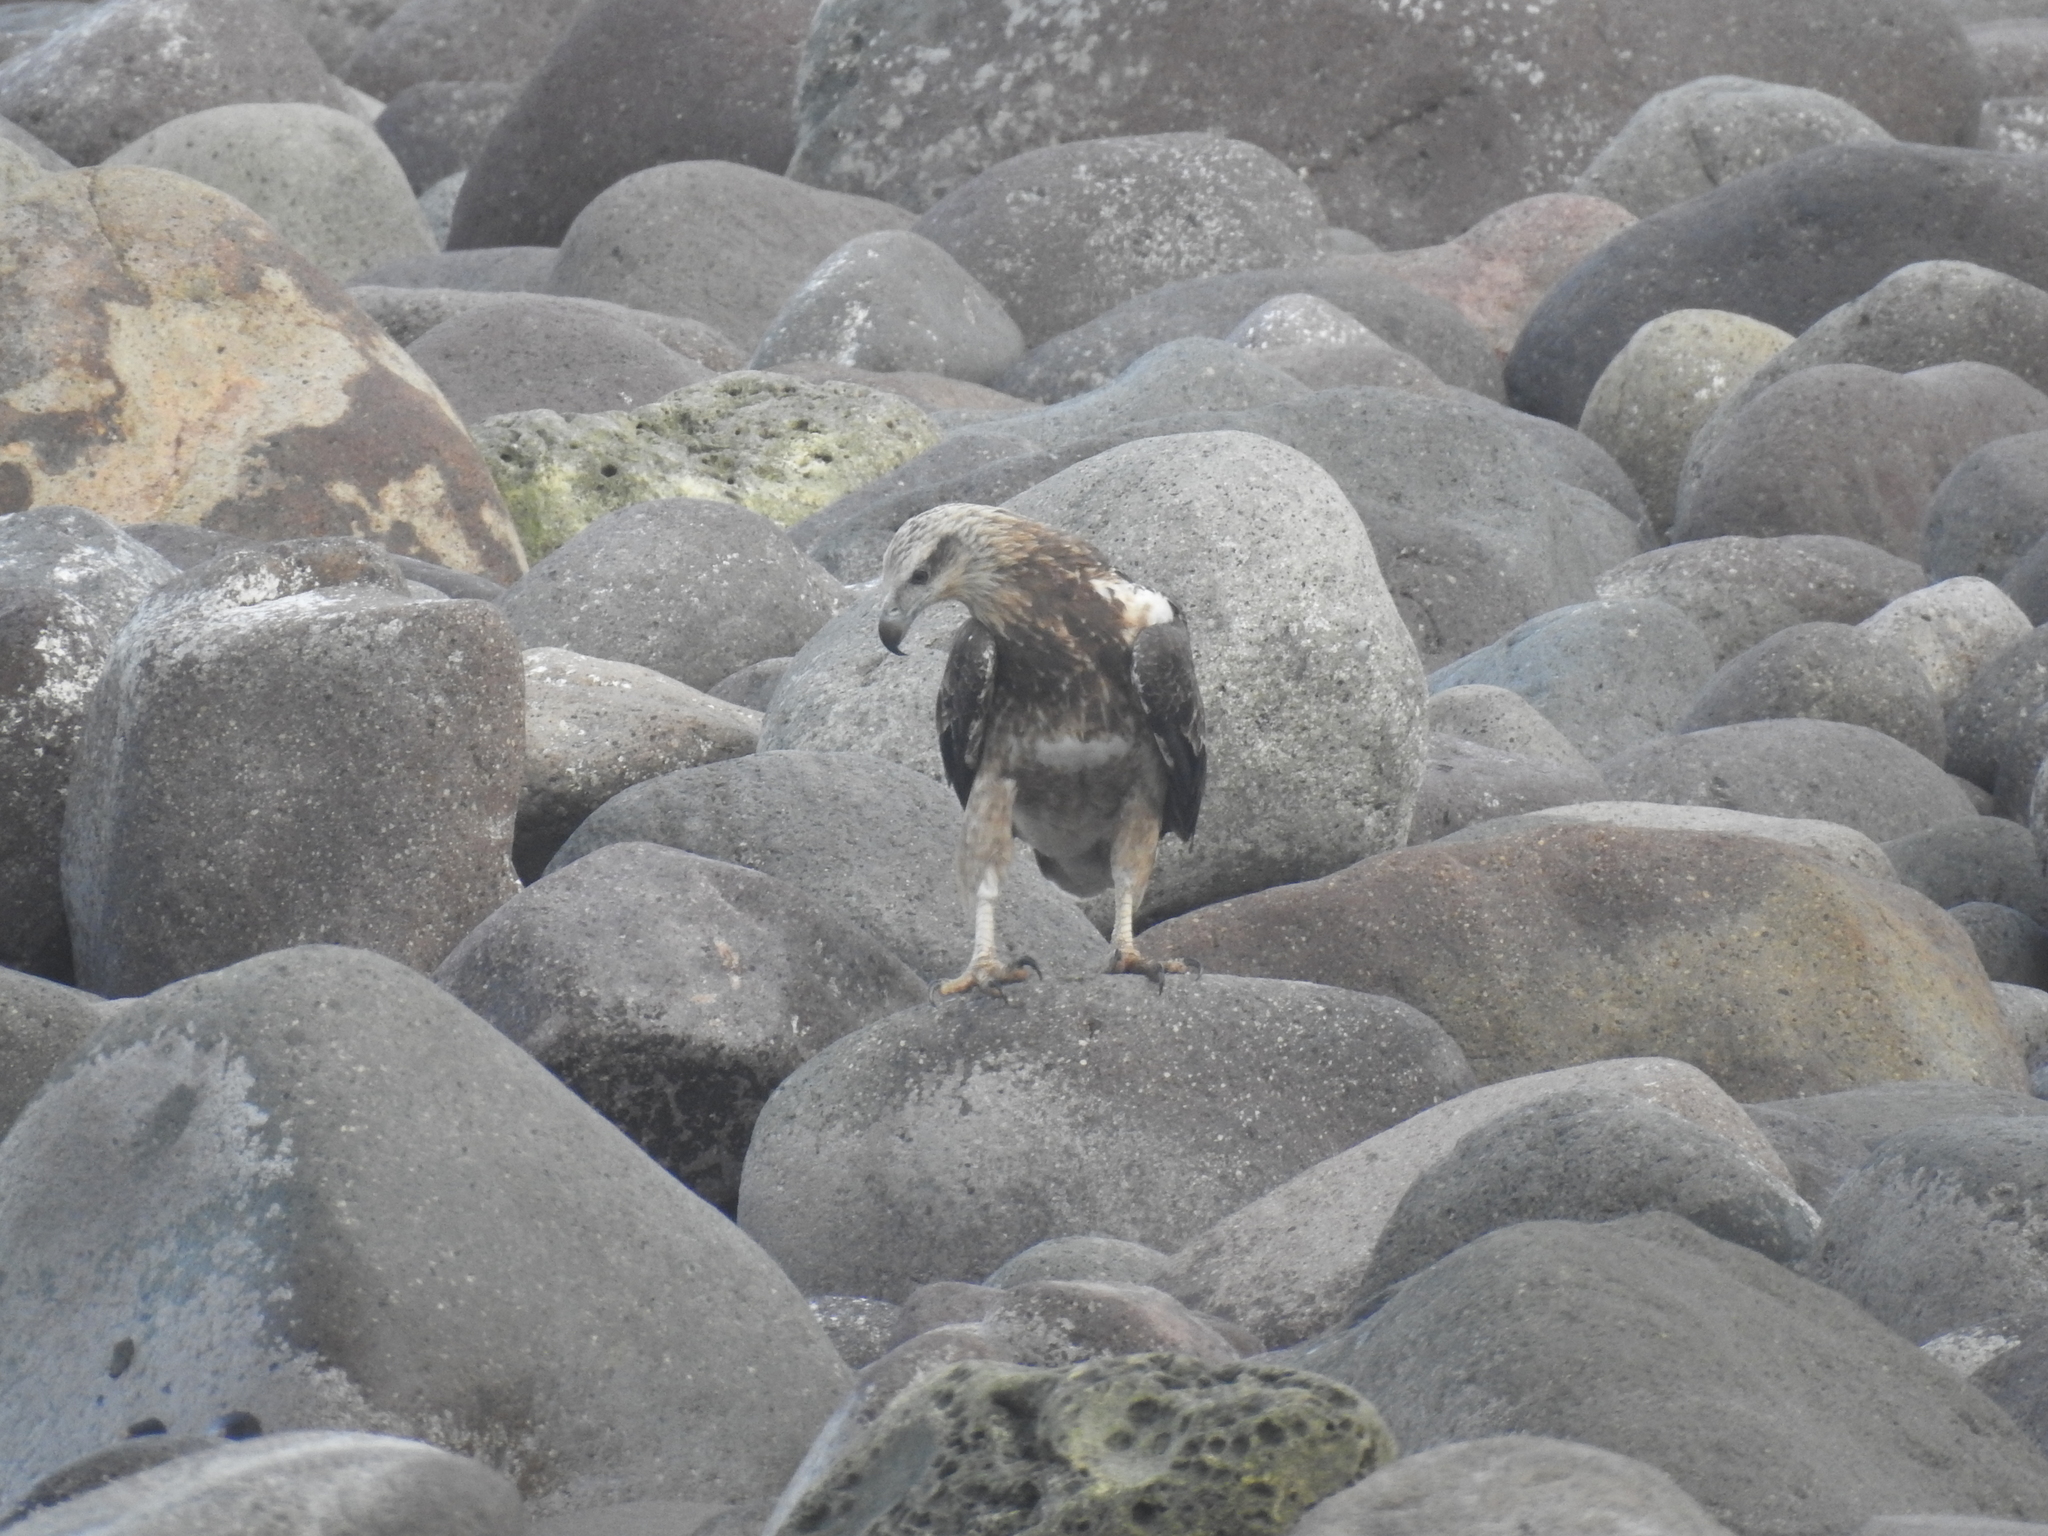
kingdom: Animalia
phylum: Chordata
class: Aves
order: Accipitriformes
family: Accipitridae
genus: Haliaeetus
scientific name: Haliaeetus leucogaster
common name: White-bellied sea eagle
